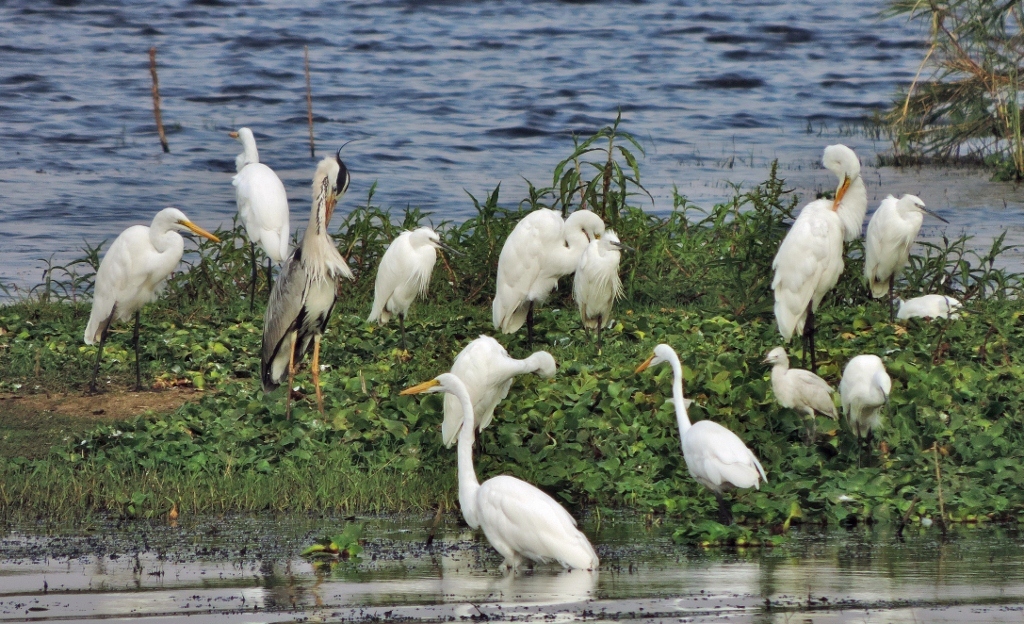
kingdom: Animalia
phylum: Chordata
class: Aves
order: Pelecaniformes
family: Ardeidae
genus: Egretta
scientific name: Egretta garzetta
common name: Little egret
